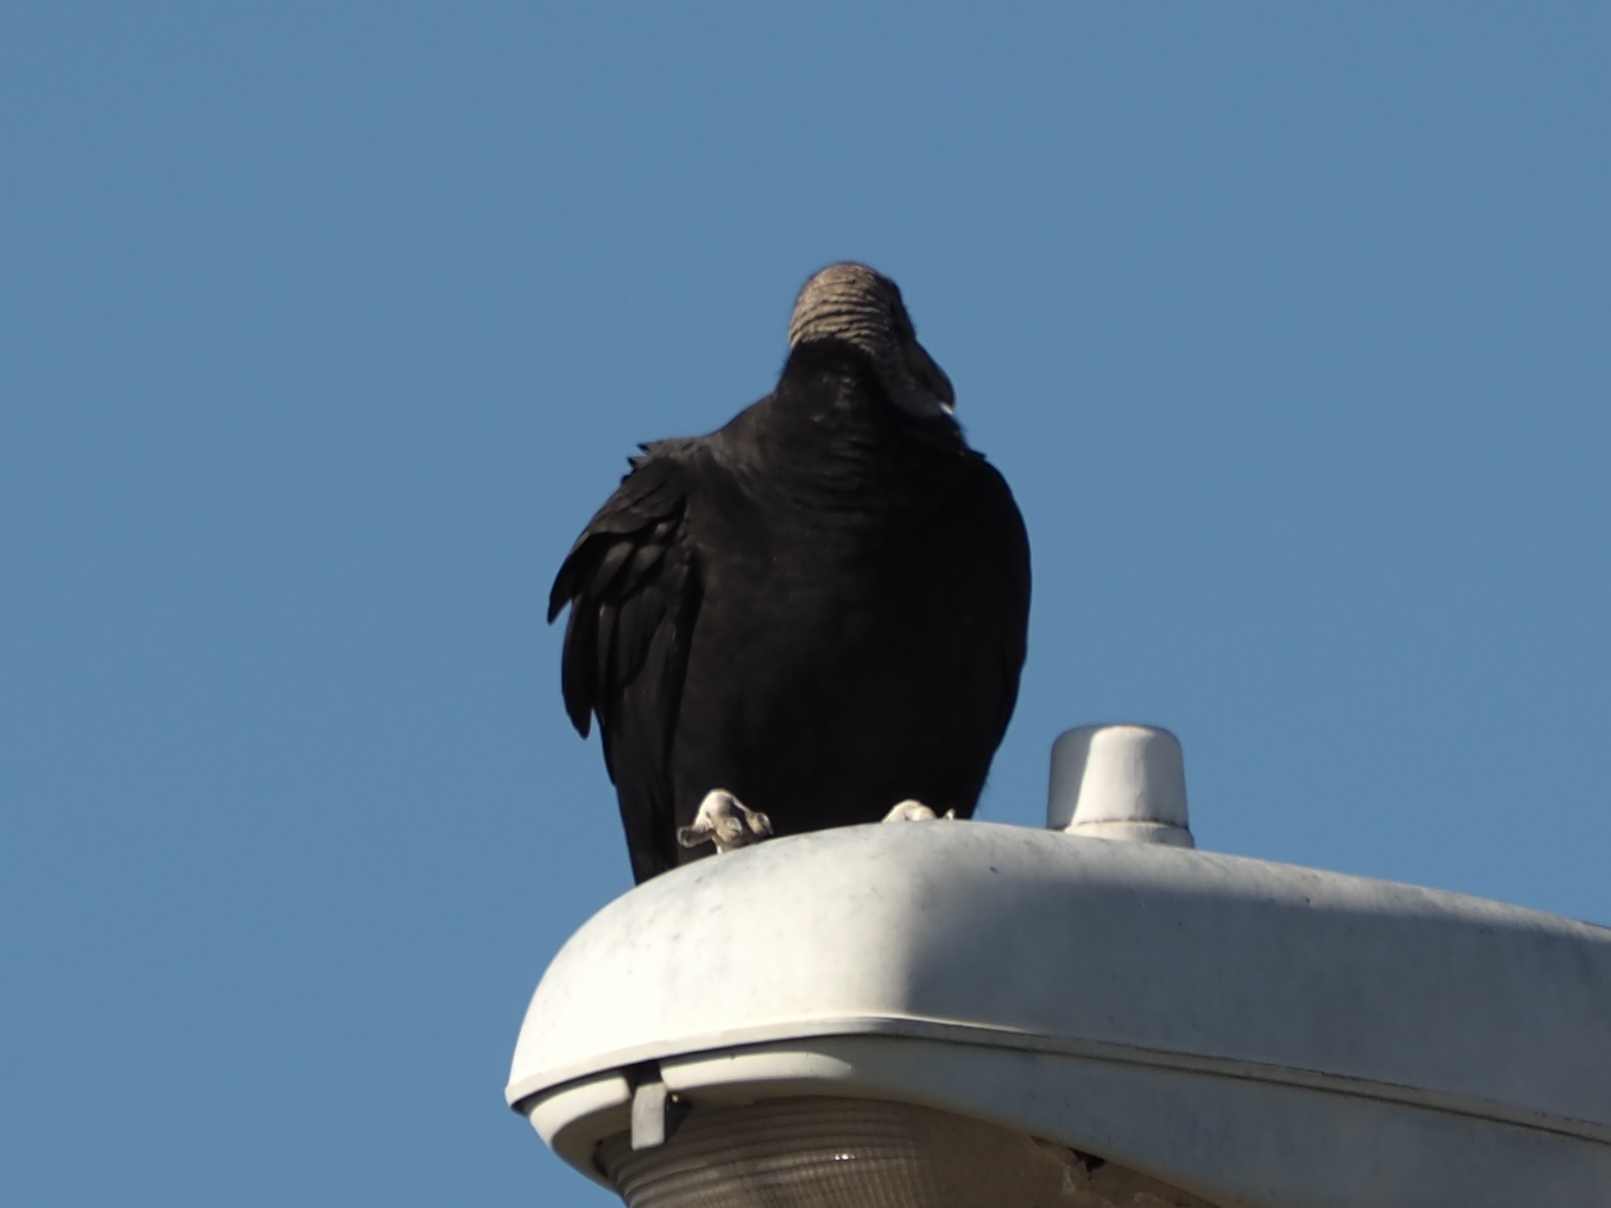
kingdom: Animalia
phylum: Chordata
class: Aves
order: Accipitriformes
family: Cathartidae
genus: Coragyps
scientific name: Coragyps atratus
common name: Black vulture
